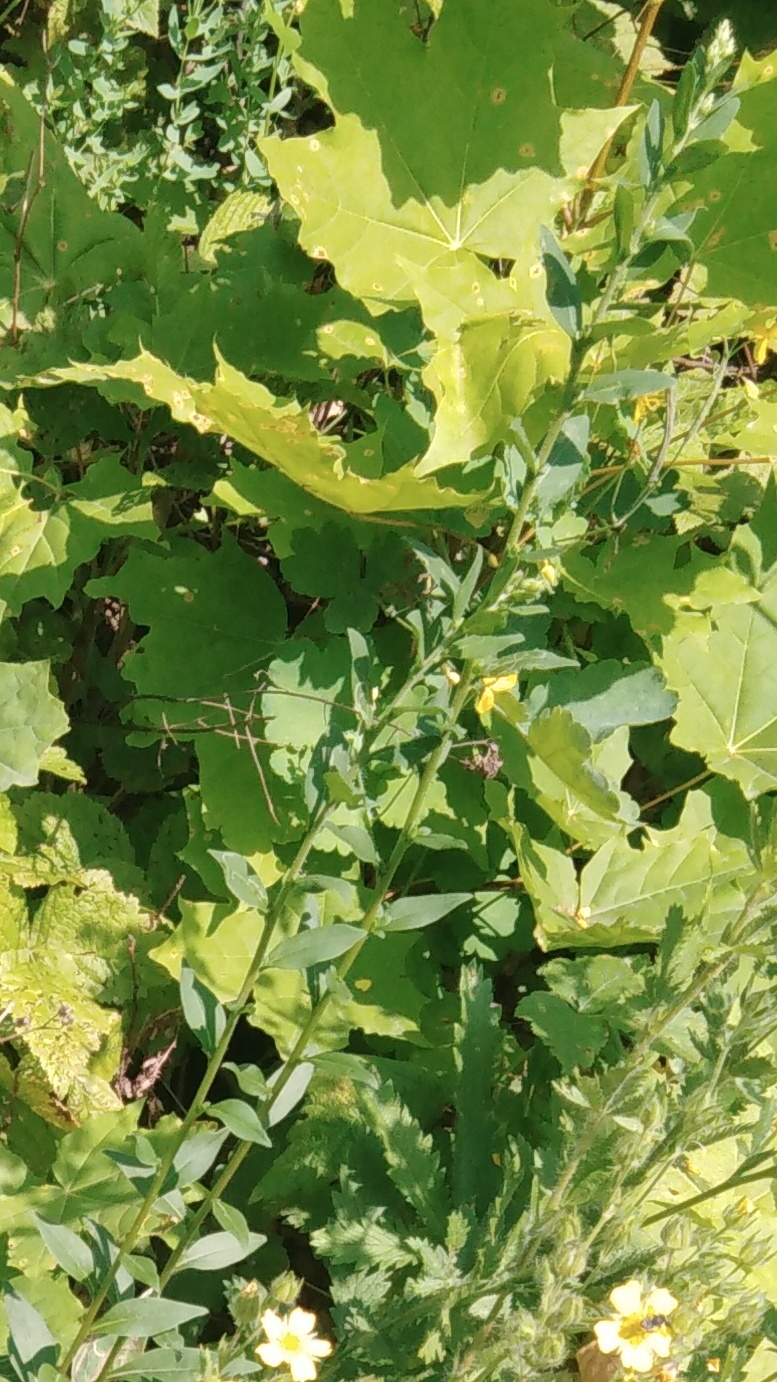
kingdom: Plantae
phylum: Tracheophyta
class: Magnoliopsida
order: Fabales
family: Fabaceae
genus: Genista
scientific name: Genista tinctoria
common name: Dyer's greenweed
